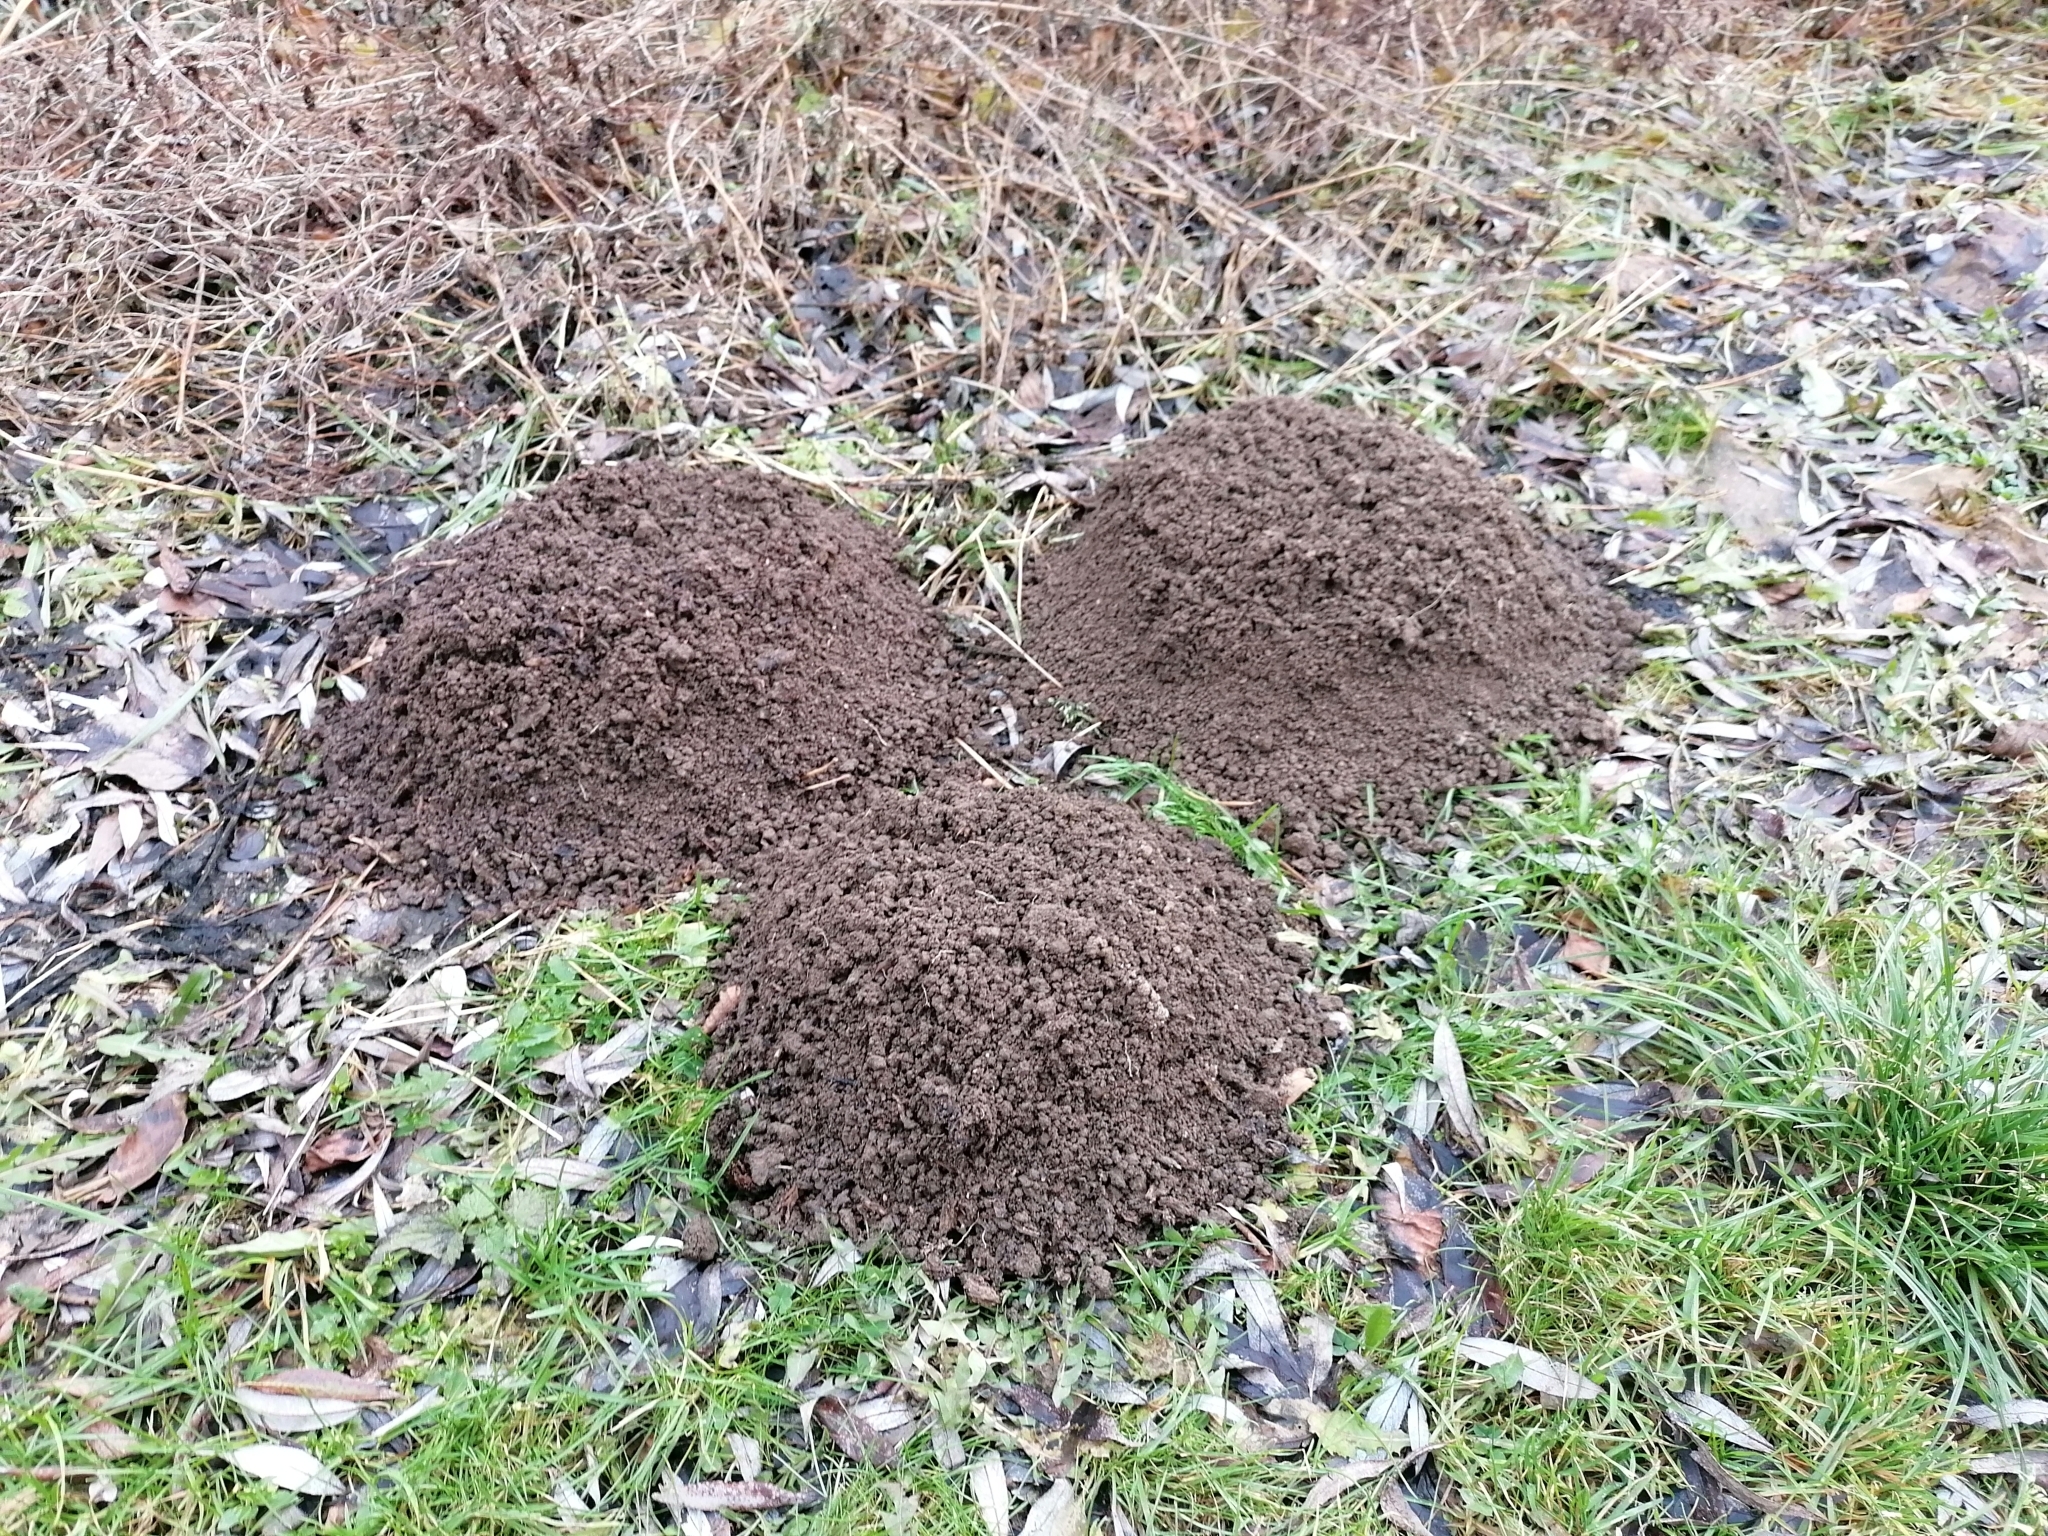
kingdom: Animalia
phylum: Chordata
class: Mammalia
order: Soricomorpha
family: Talpidae
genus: Talpa
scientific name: Talpa europaea
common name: European mole
